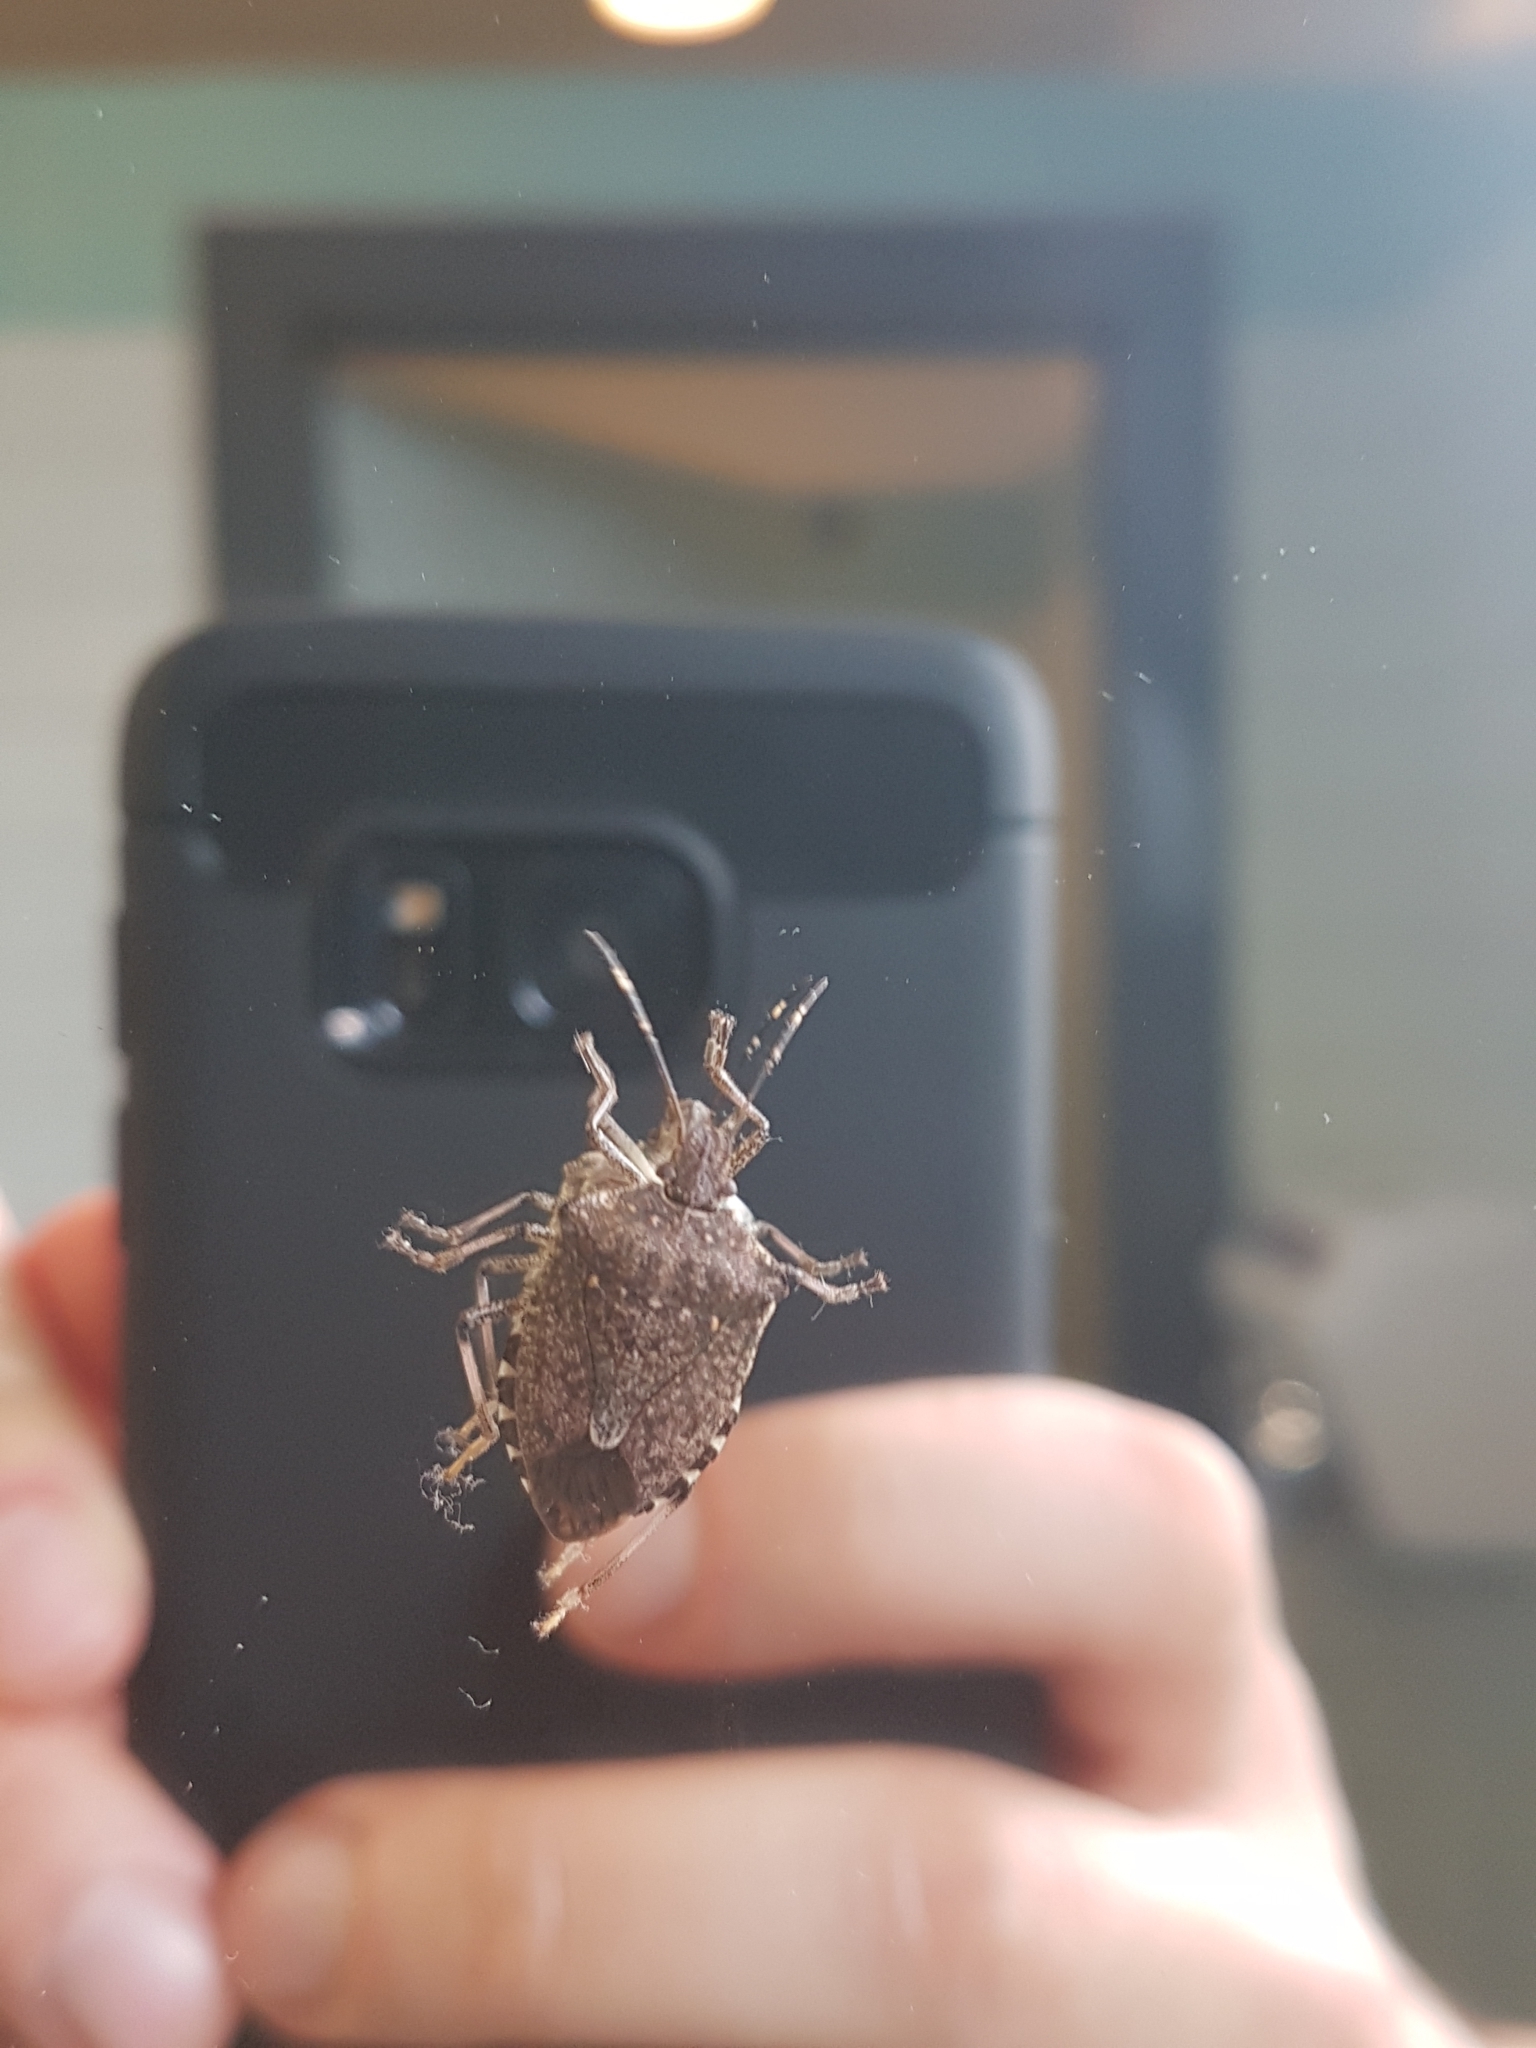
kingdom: Animalia
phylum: Arthropoda
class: Insecta
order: Hemiptera
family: Pentatomidae
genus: Halyomorpha
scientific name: Halyomorpha halys
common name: Brown marmorated stink bug
